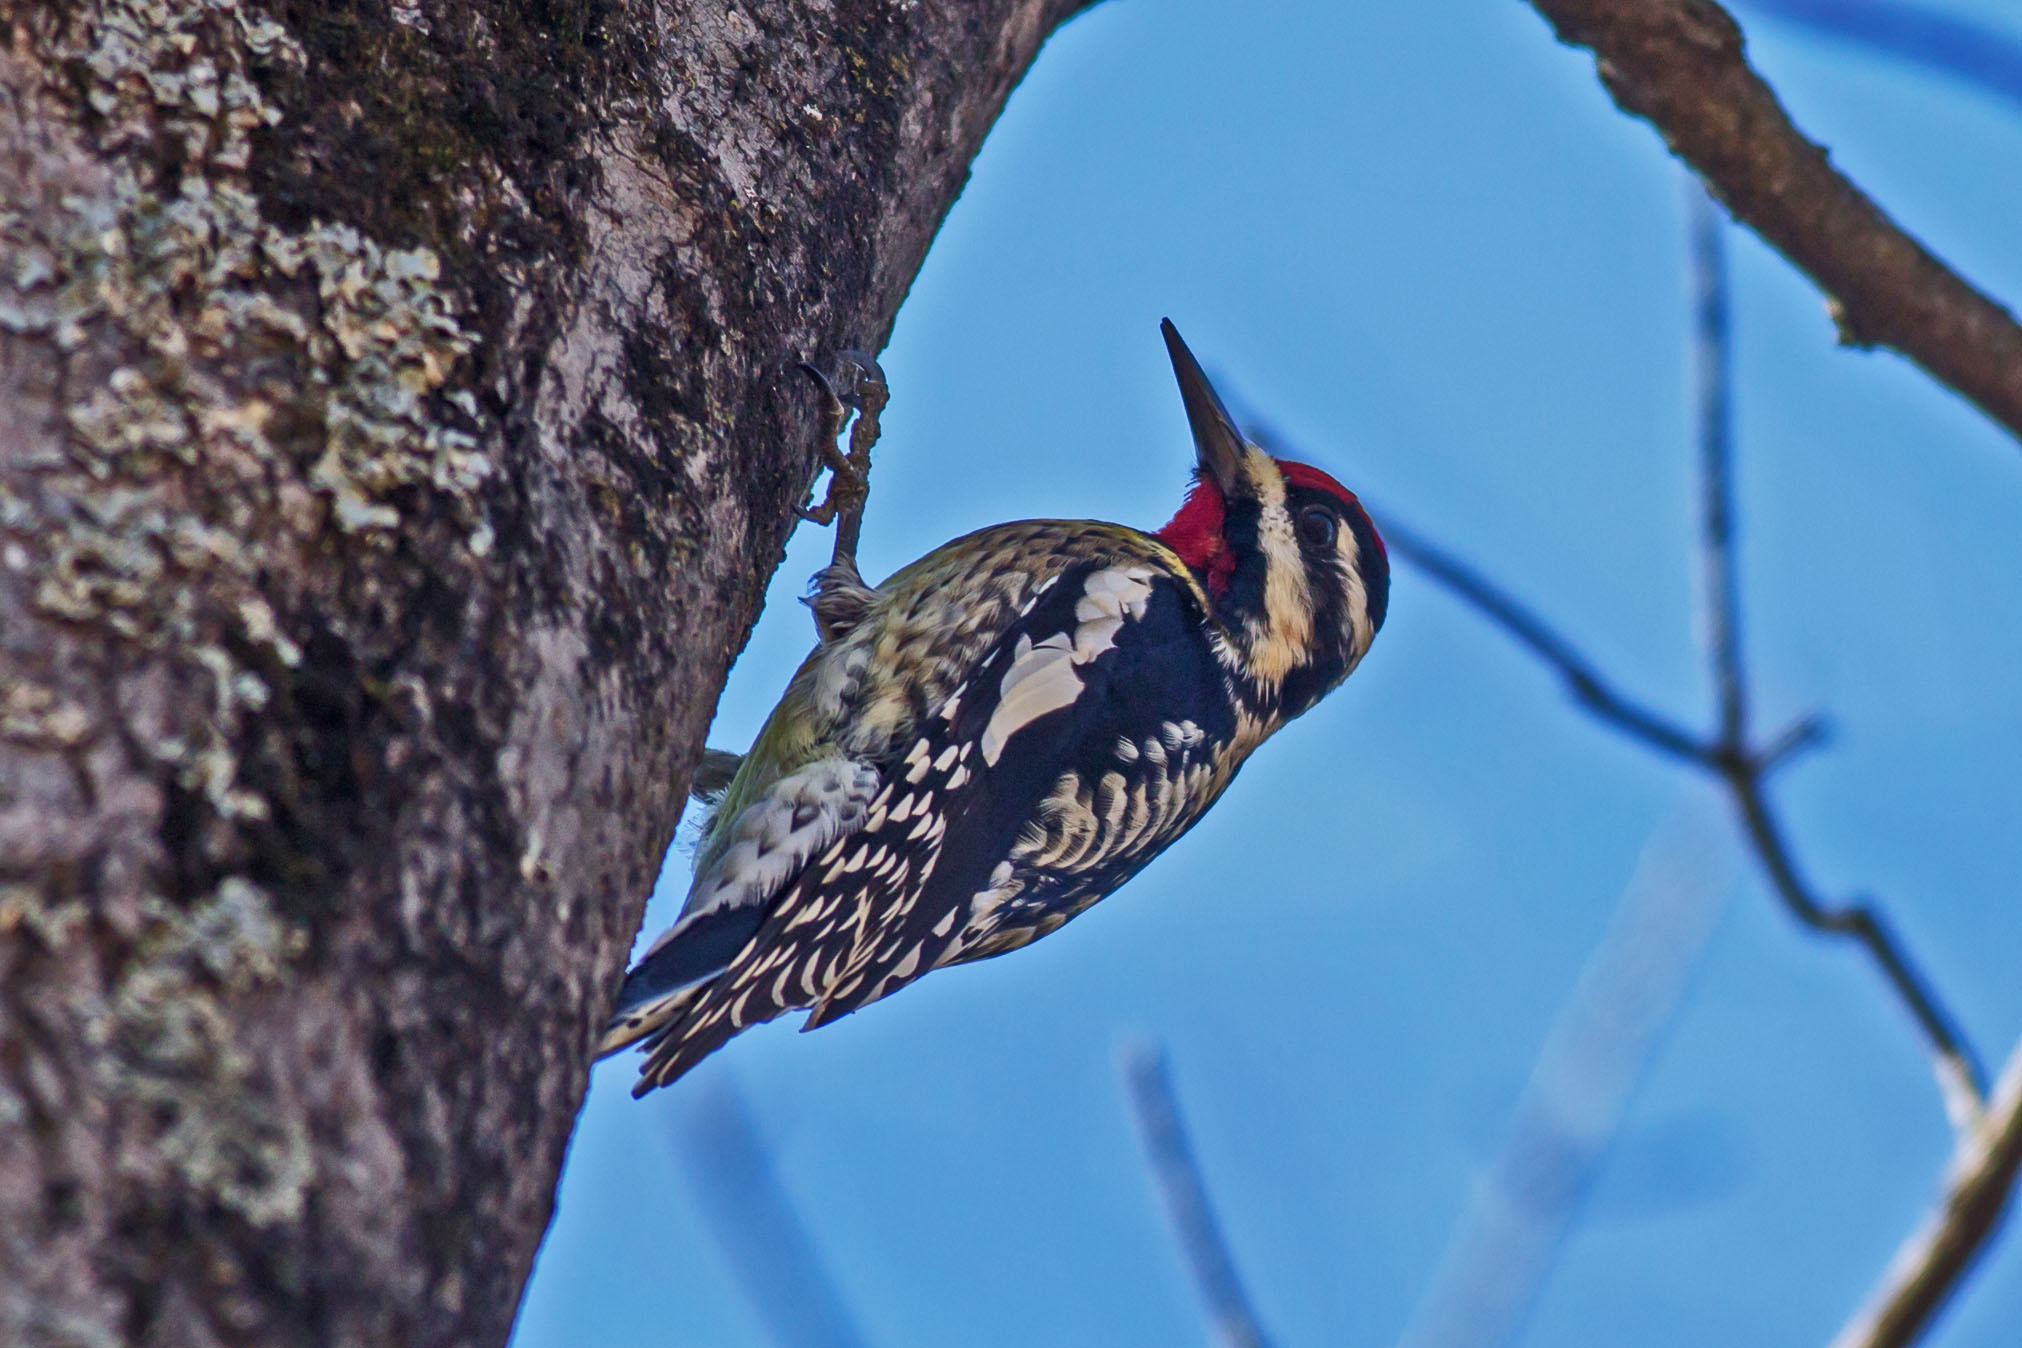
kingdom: Animalia
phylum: Chordata
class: Aves
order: Piciformes
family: Picidae
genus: Sphyrapicus
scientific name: Sphyrapicus varius
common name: Yellow-bellied sapsucker
